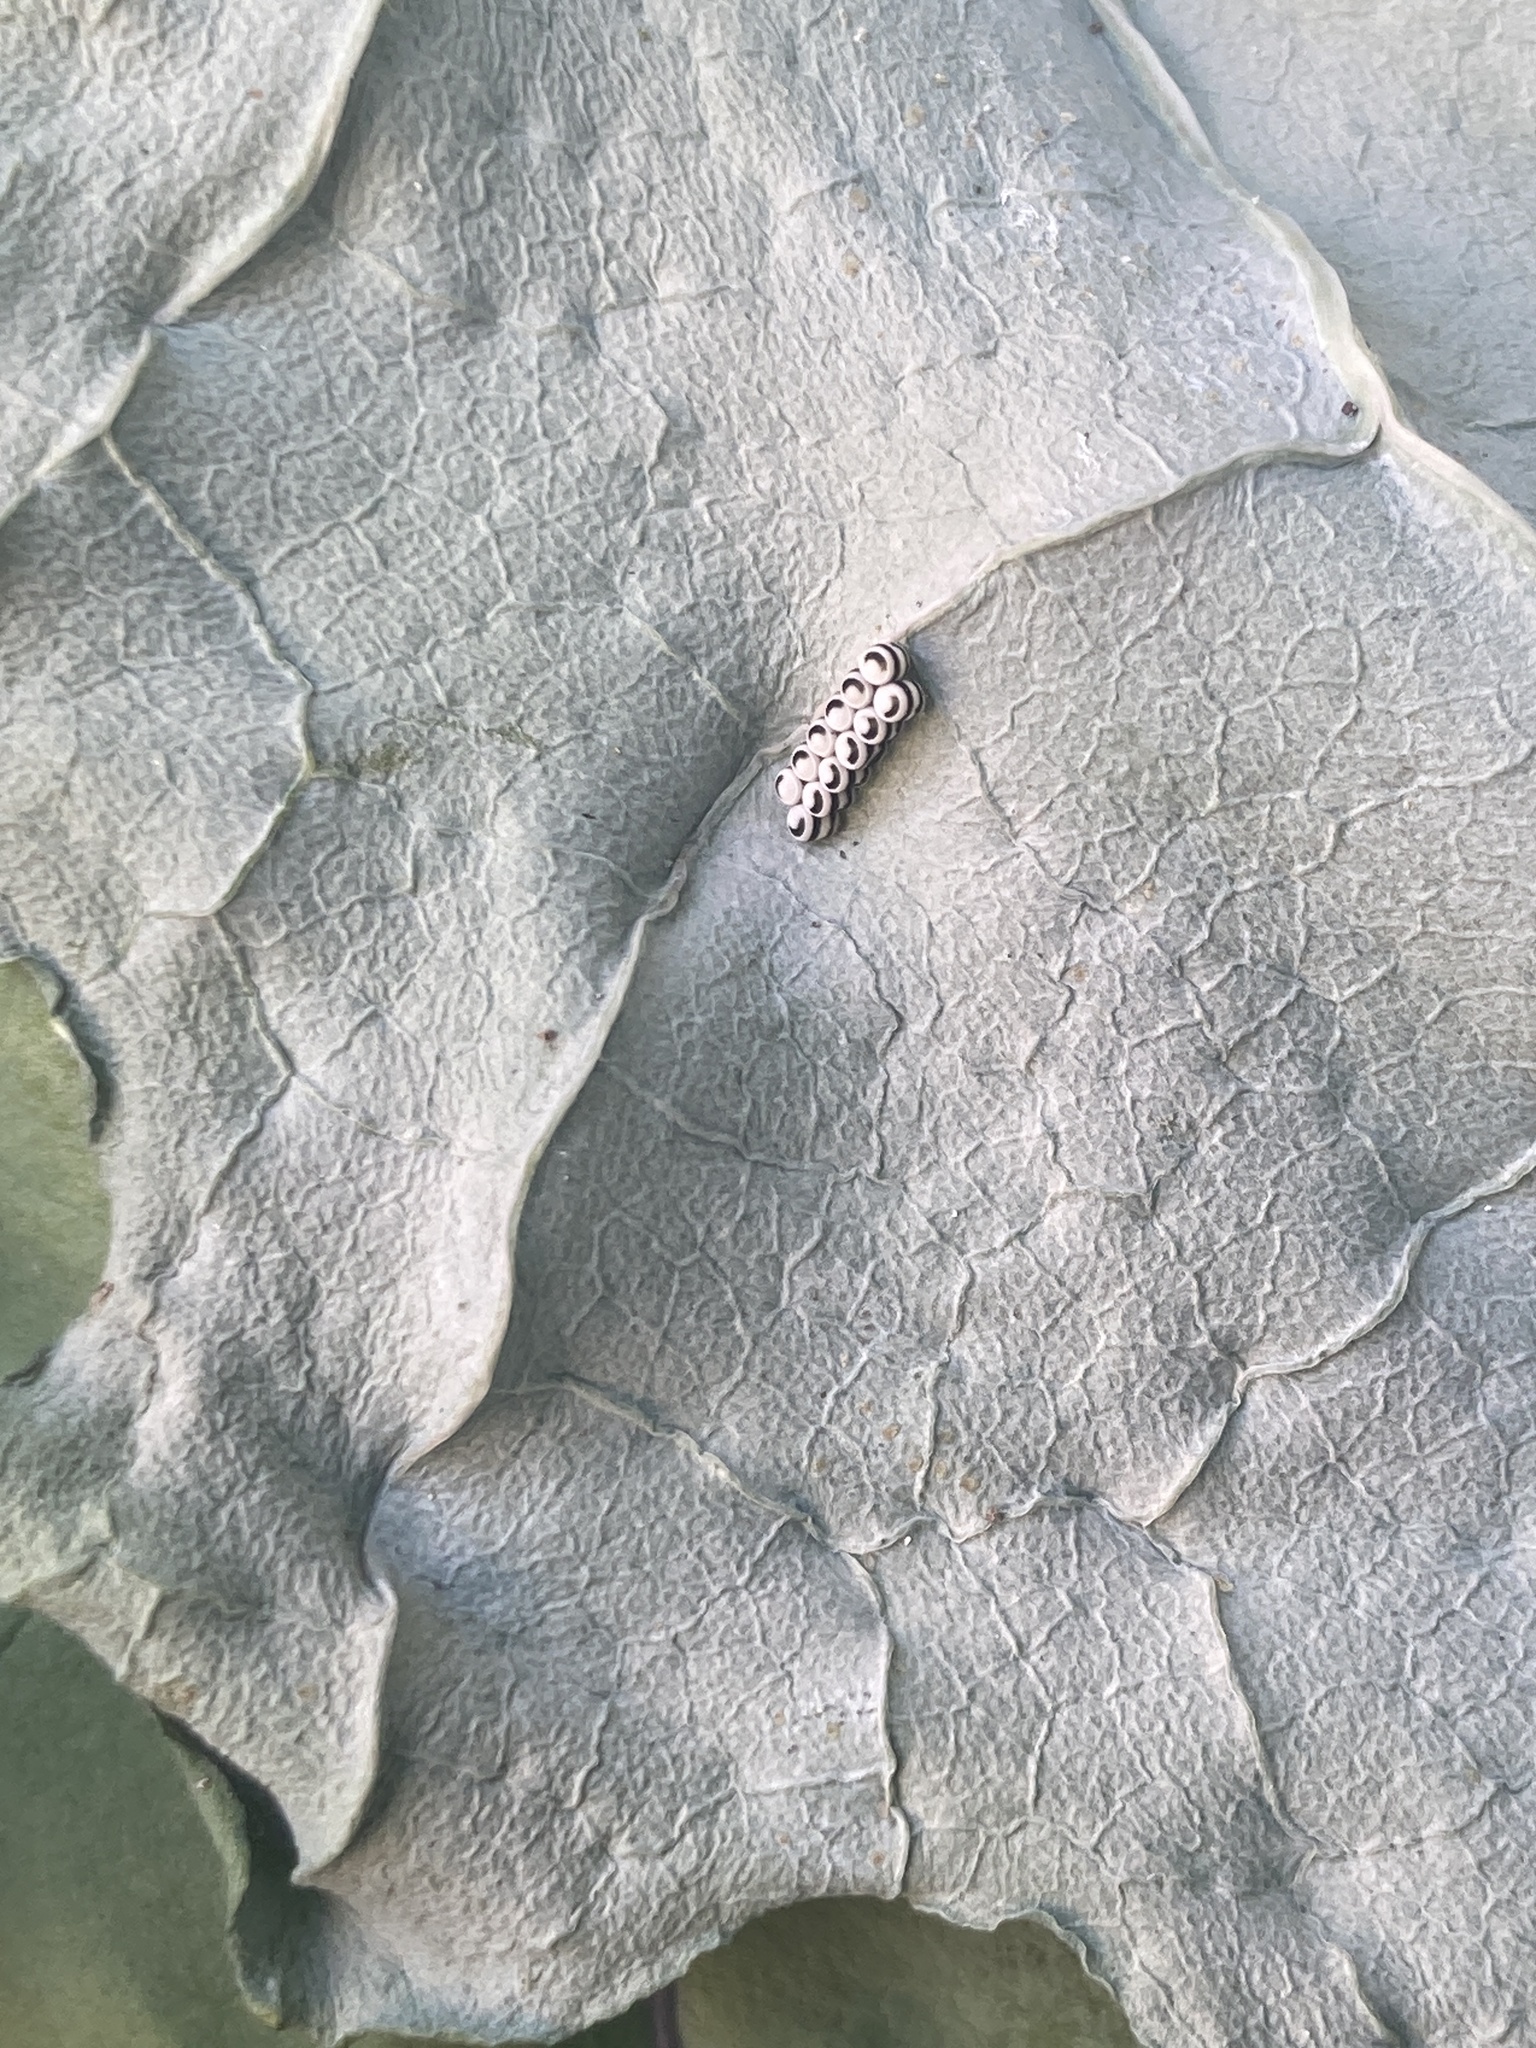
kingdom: Animalia
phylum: Arthropoda
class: Insecta
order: Hemiptera
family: Pentatomidae
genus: Murgantia
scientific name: Murgantia histrionica
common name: Harlequin bug
